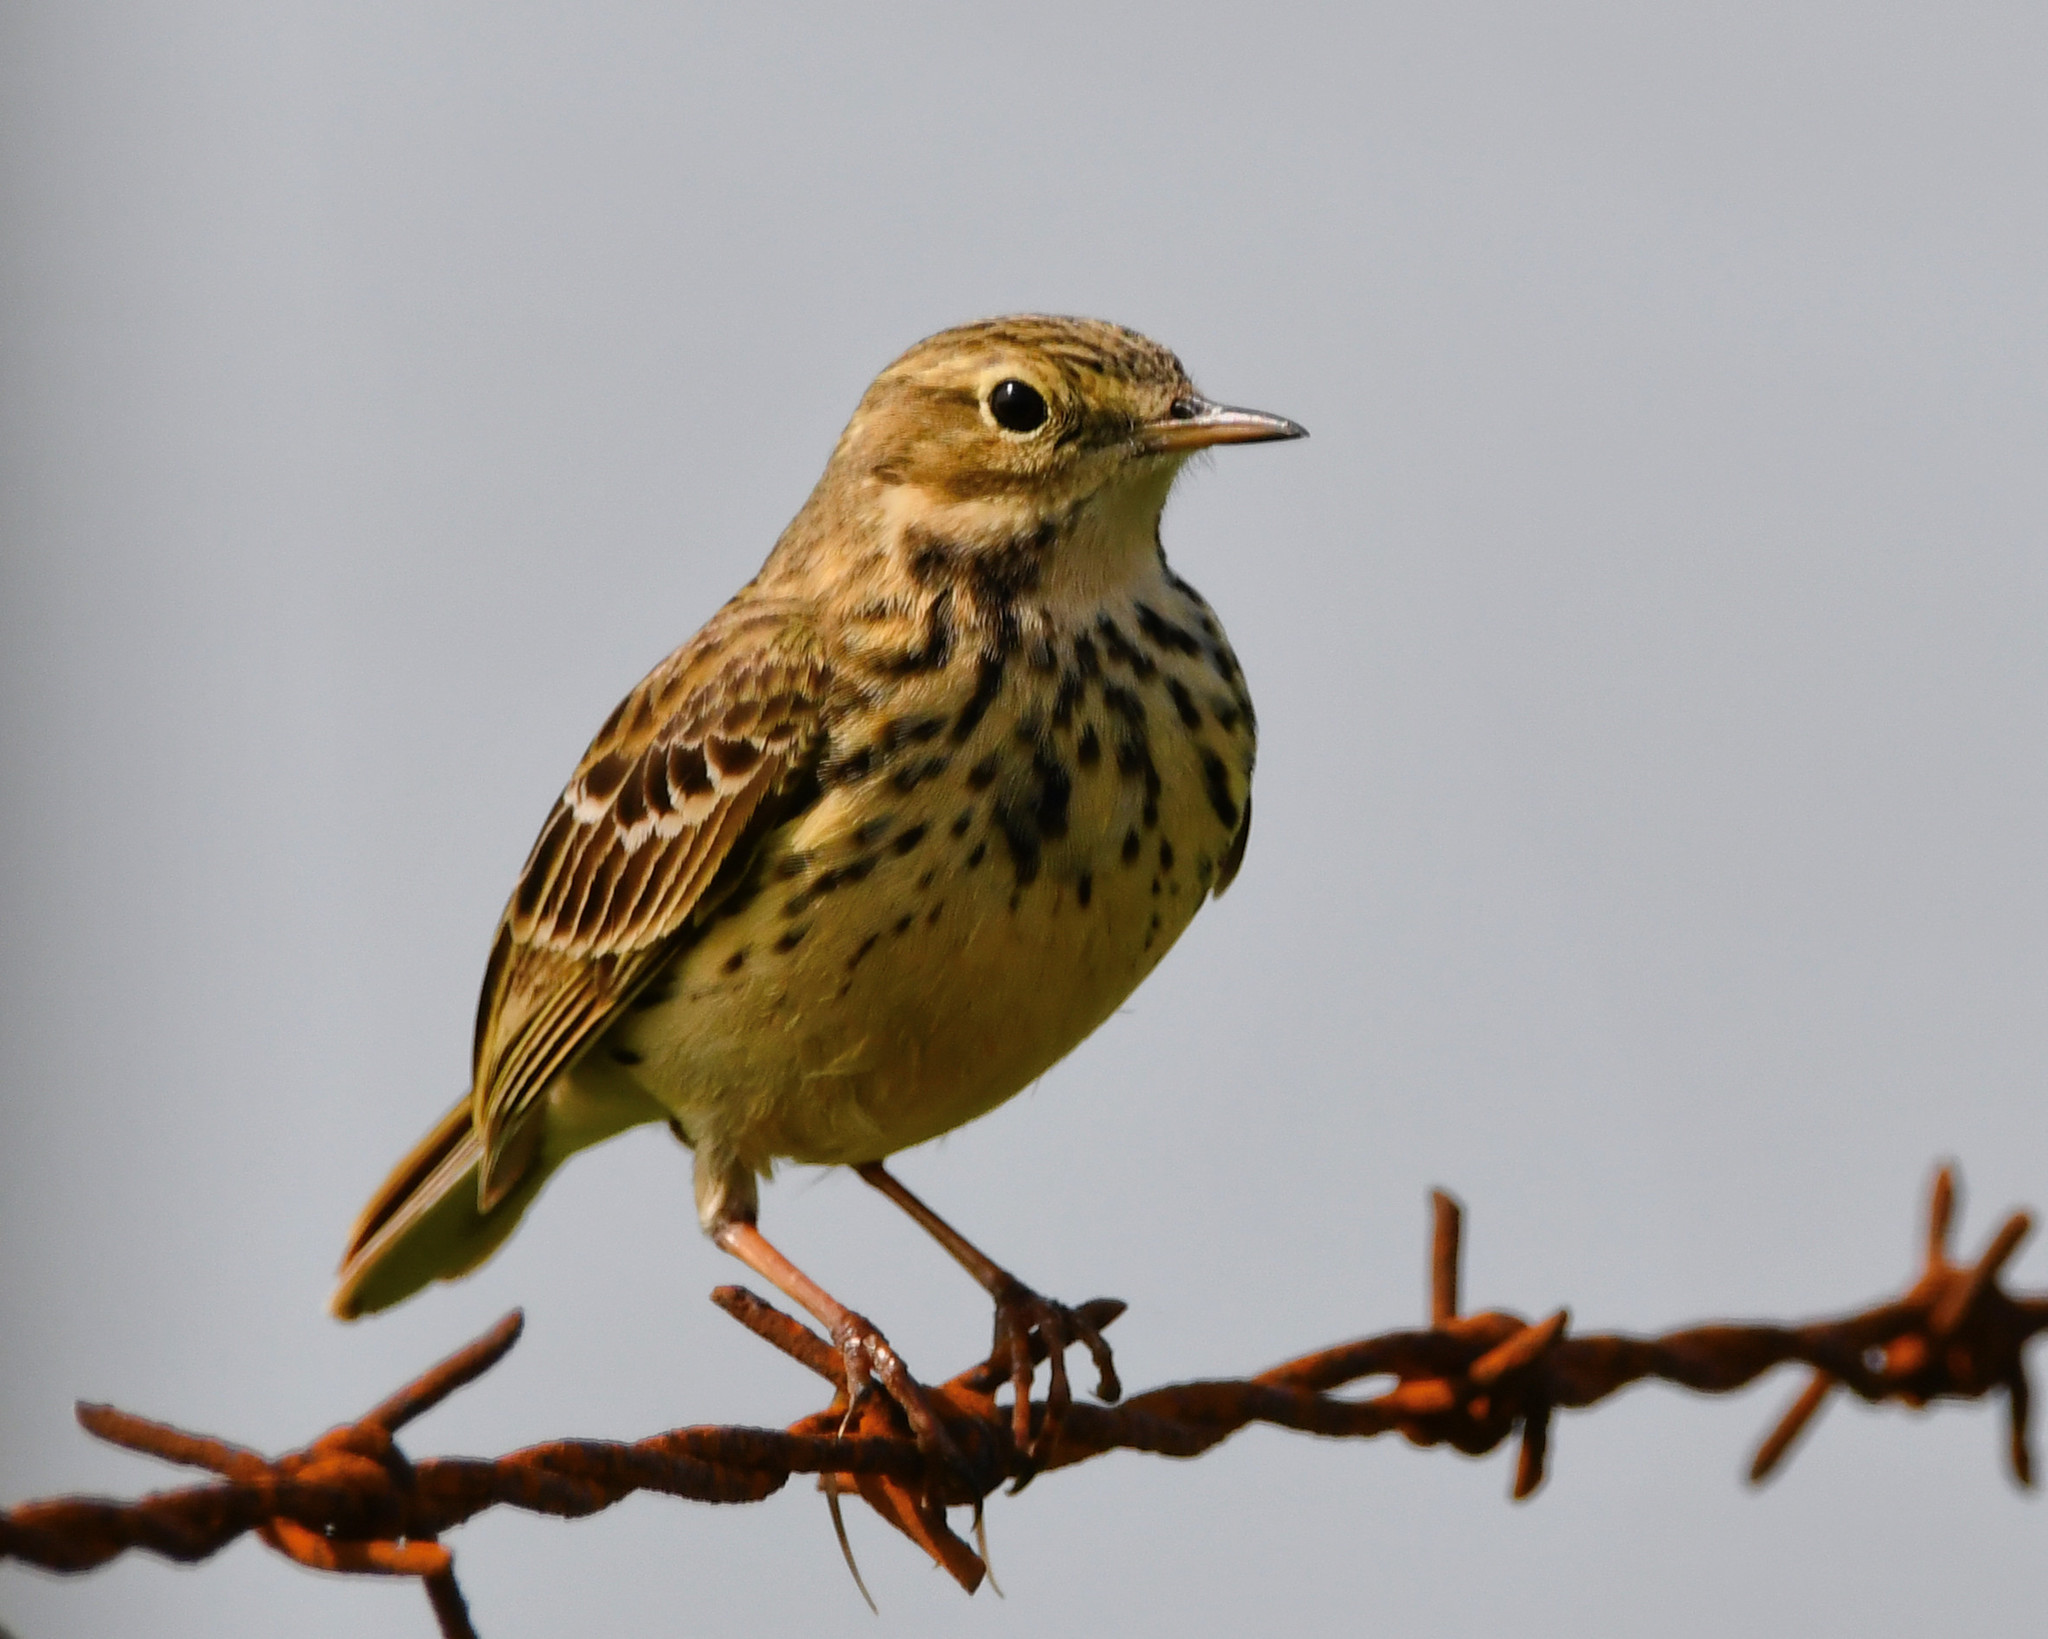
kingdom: Animalia
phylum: Chordata
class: Aves
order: Passeriformes
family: Motacillidae
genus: Anthus
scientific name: Anthus pratensis
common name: Meadow pipit
